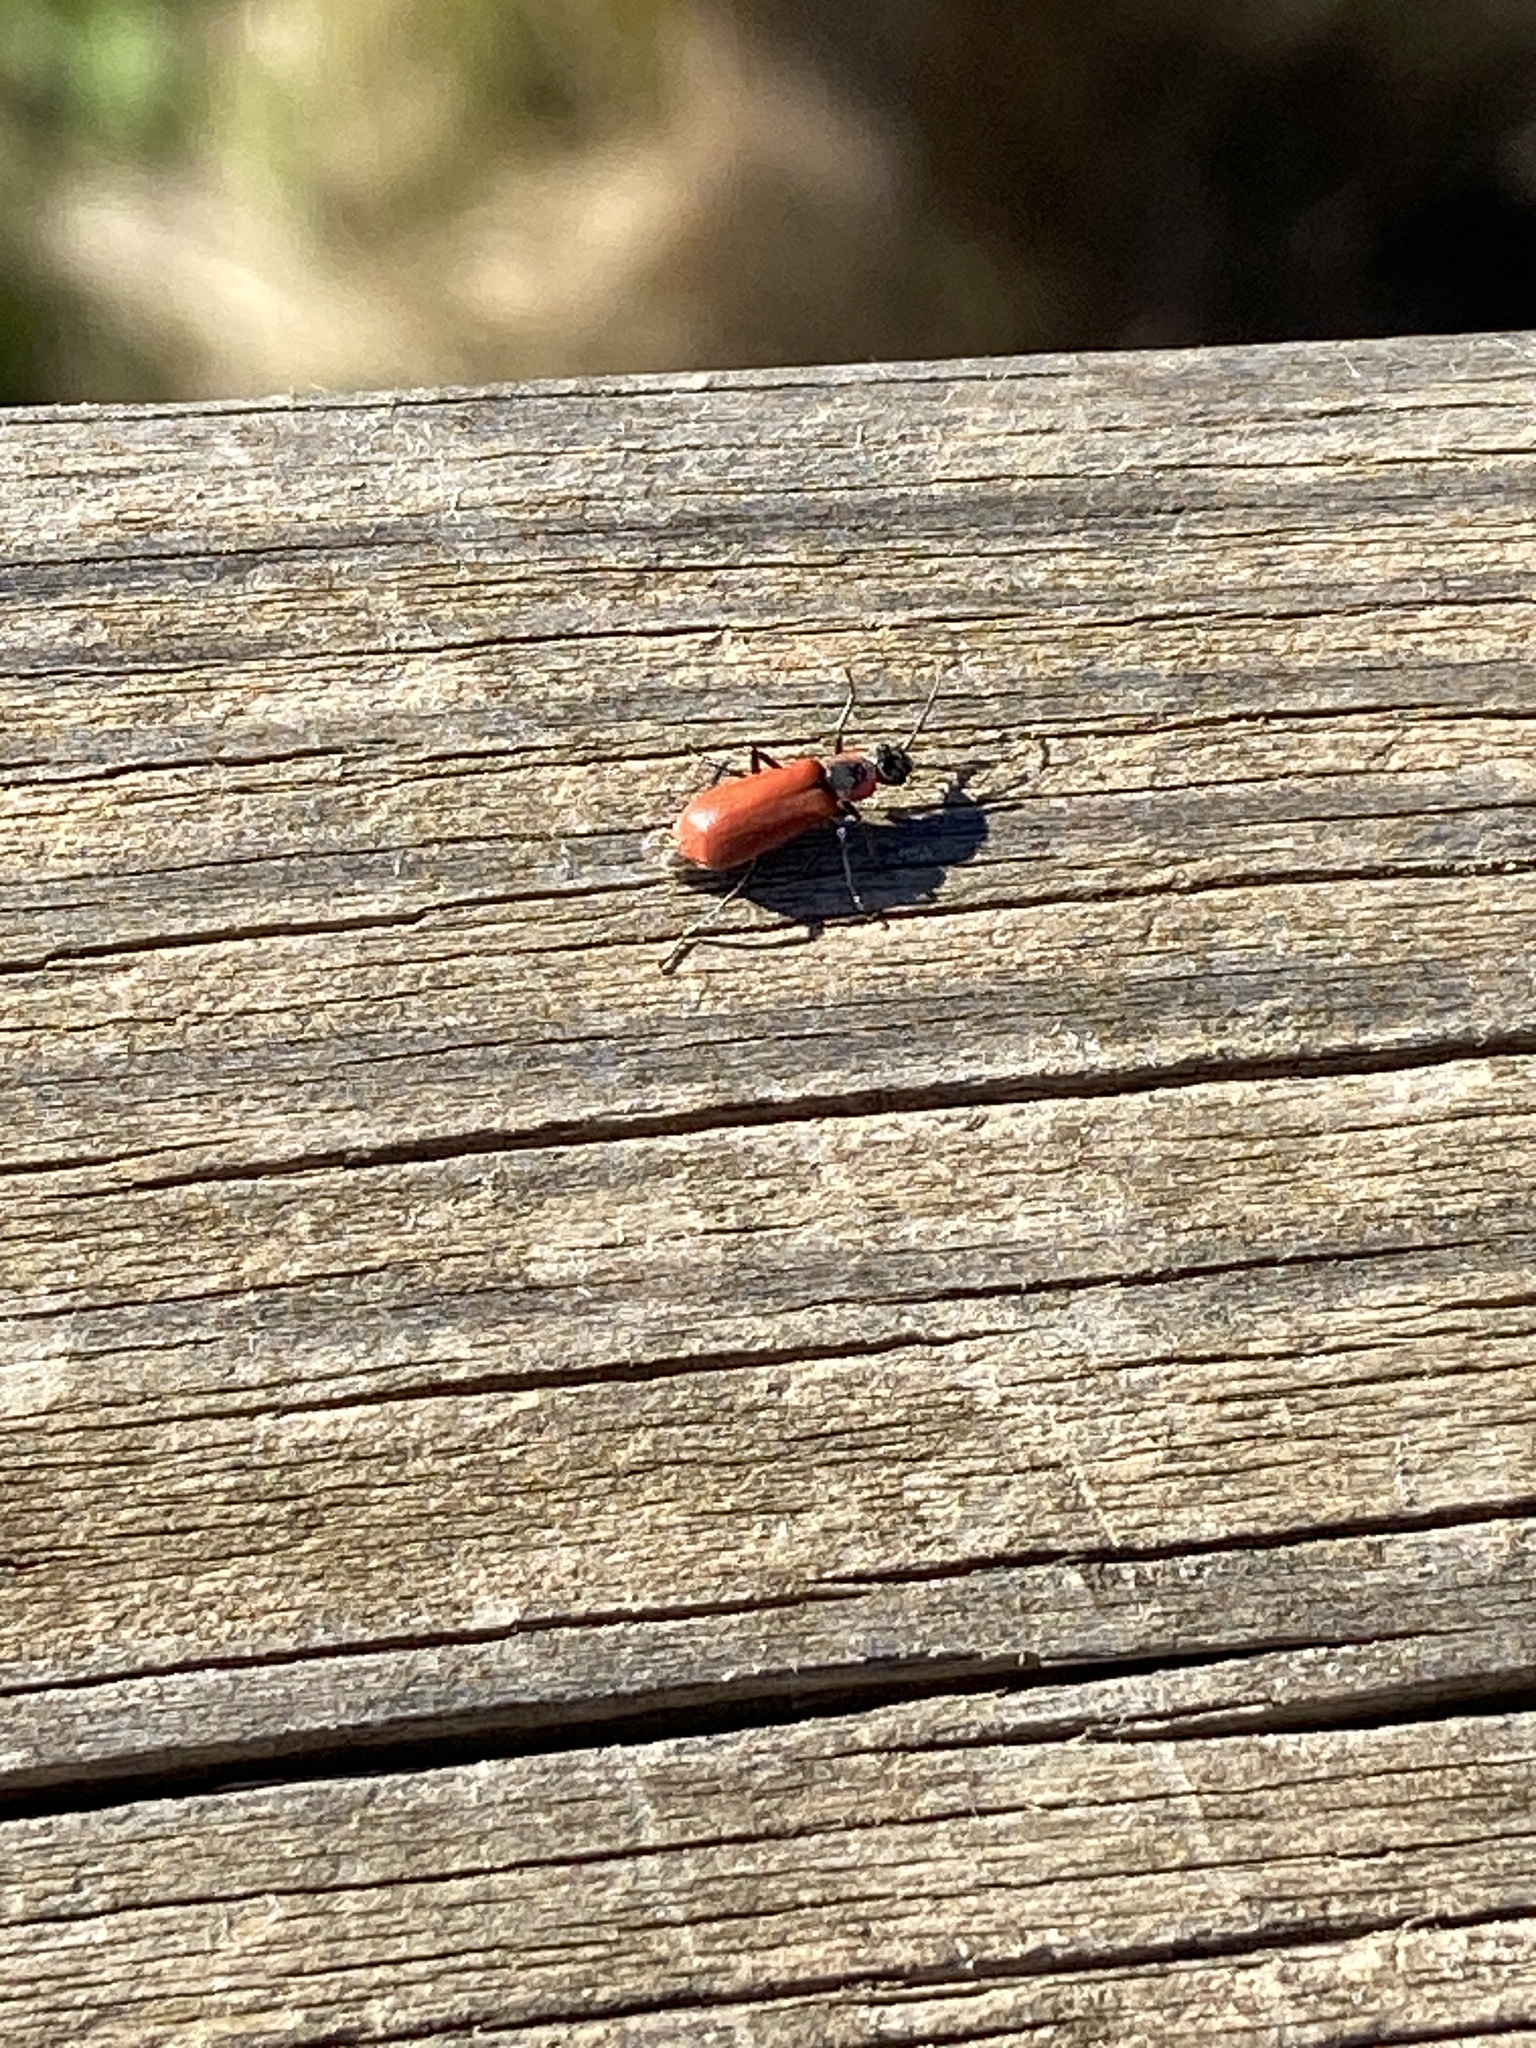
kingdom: Animalia
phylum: Arthropoda
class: Insecta
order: Coleoptera
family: Melyridae
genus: Anthocomus
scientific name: Anthocomus rufus
